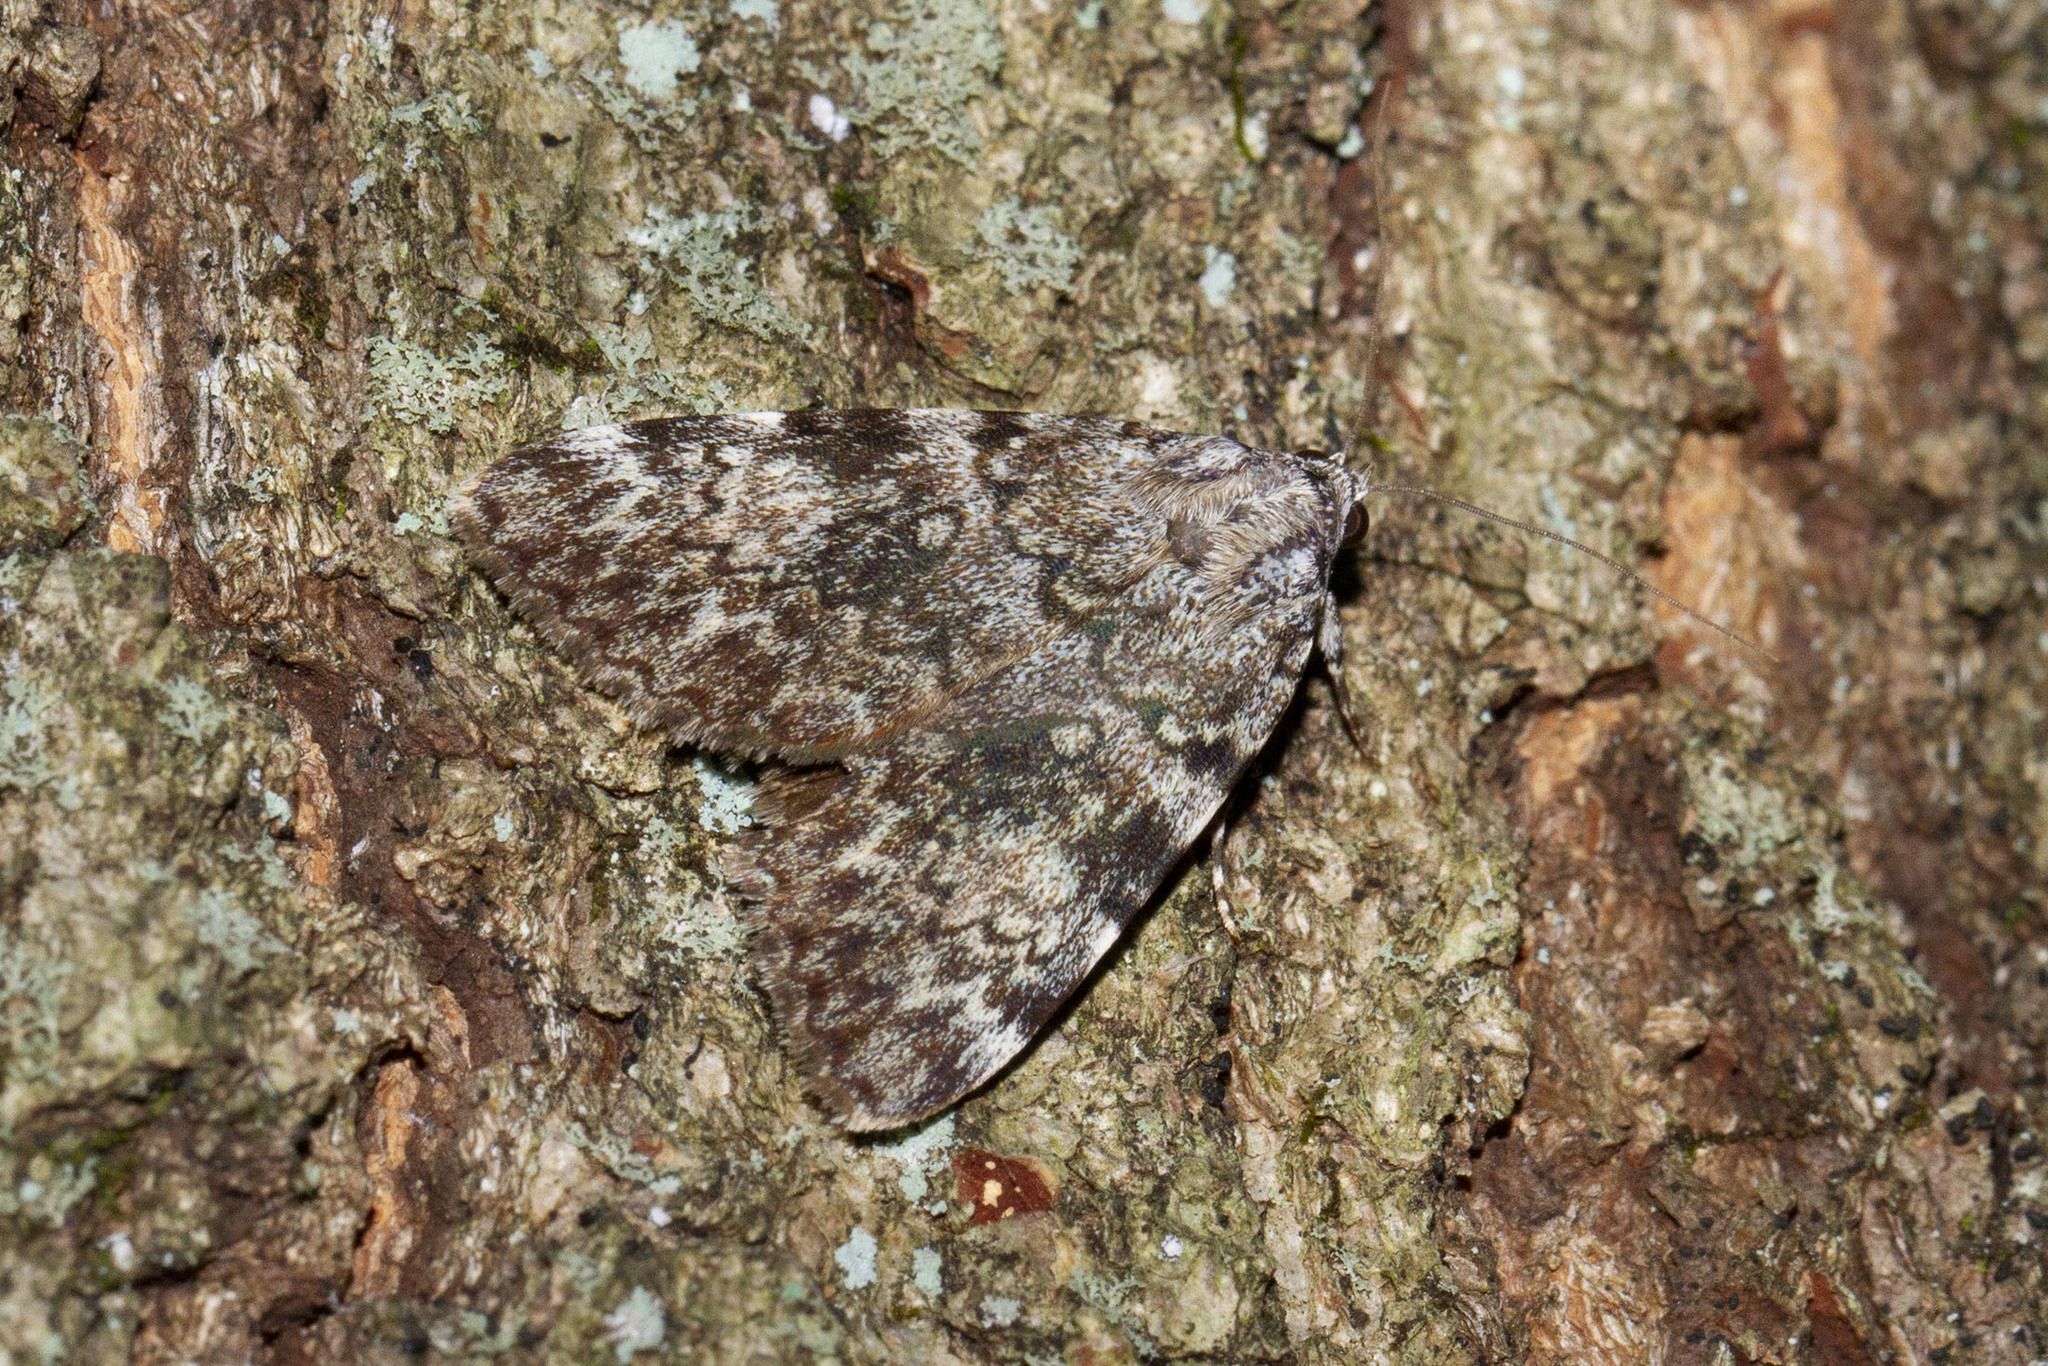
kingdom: Animalia
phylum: Arthropoda
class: Insecta
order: Lepidoptera
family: Erebidae
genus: Catocala
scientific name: Catocala lineella
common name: Little lined underwing
